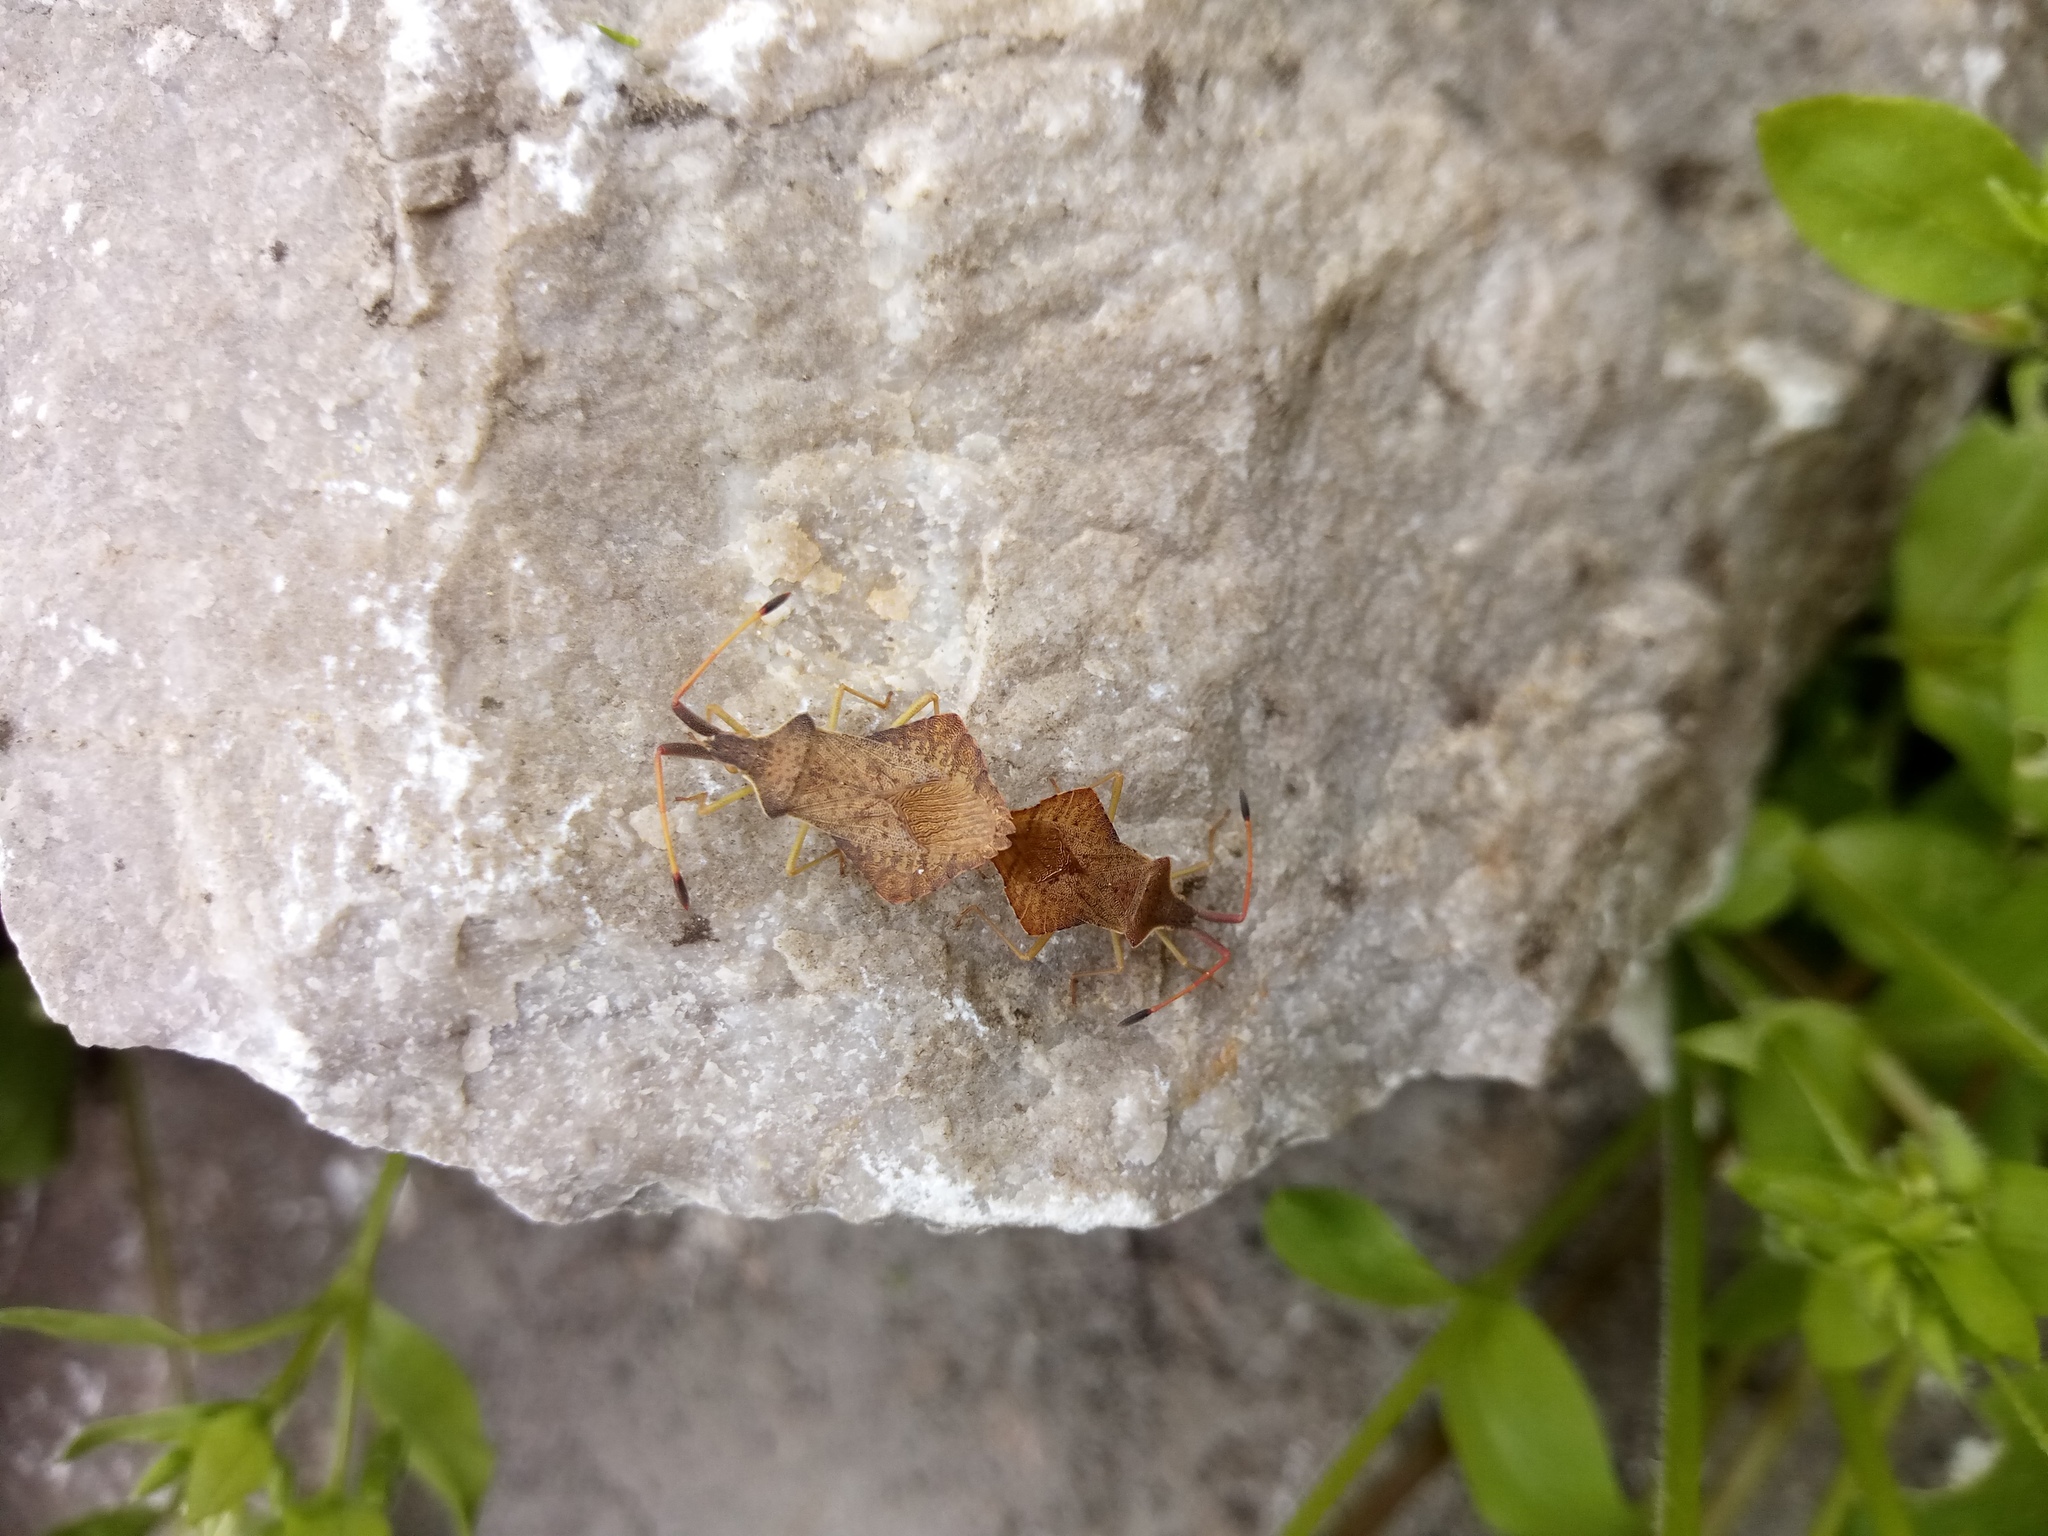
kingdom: Animalia
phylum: Arthropoda
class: Insecta
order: Hemiptera
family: Coreidae
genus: Syromastus
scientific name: Syromastus rhombeus
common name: Rhombic leatherbug
